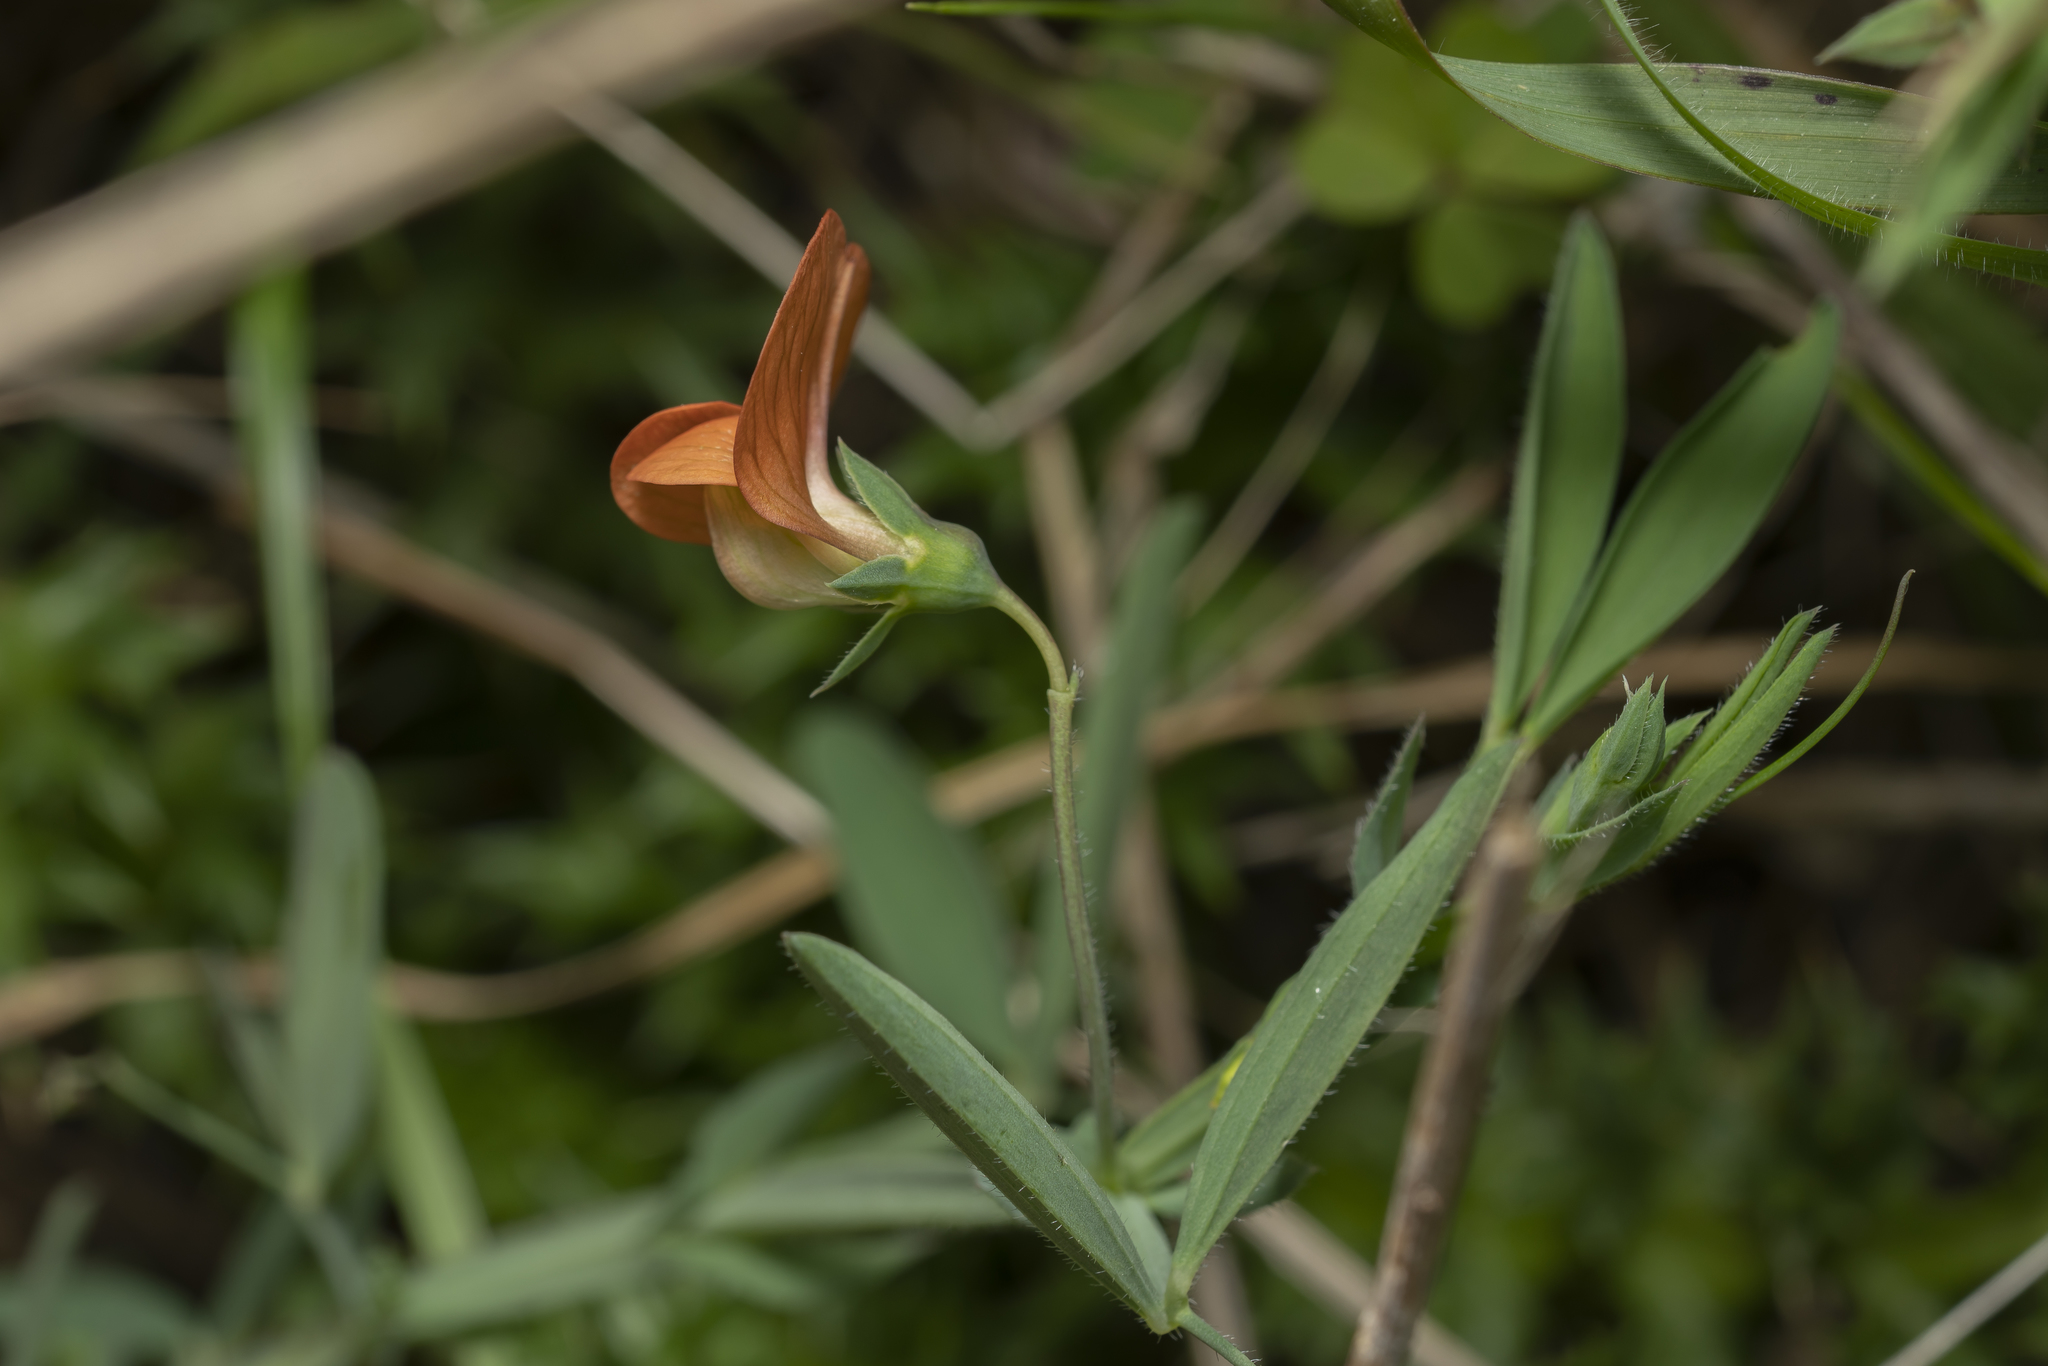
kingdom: Plantae
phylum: Tracheophyta
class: Magnoliopsida
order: Fabales
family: Fabaceae
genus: Lathyrus
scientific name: Lathyrus
